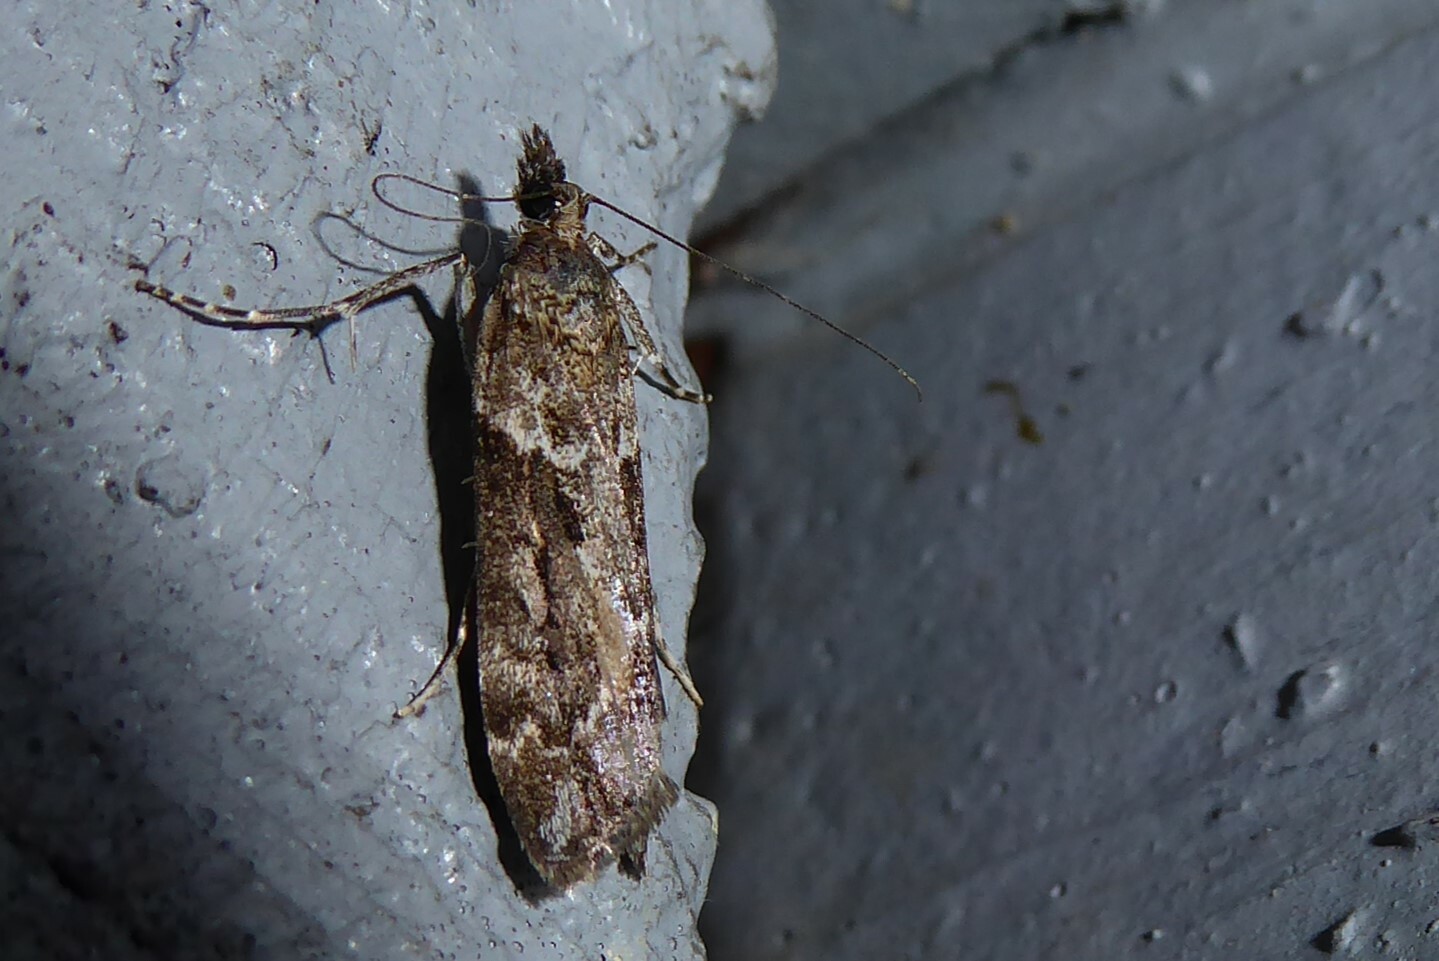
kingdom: Animalia
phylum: Arthropoda
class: Insecta
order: Lepidoptera
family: Crambidae
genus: Eudonia
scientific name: Eudonia submarginalis
